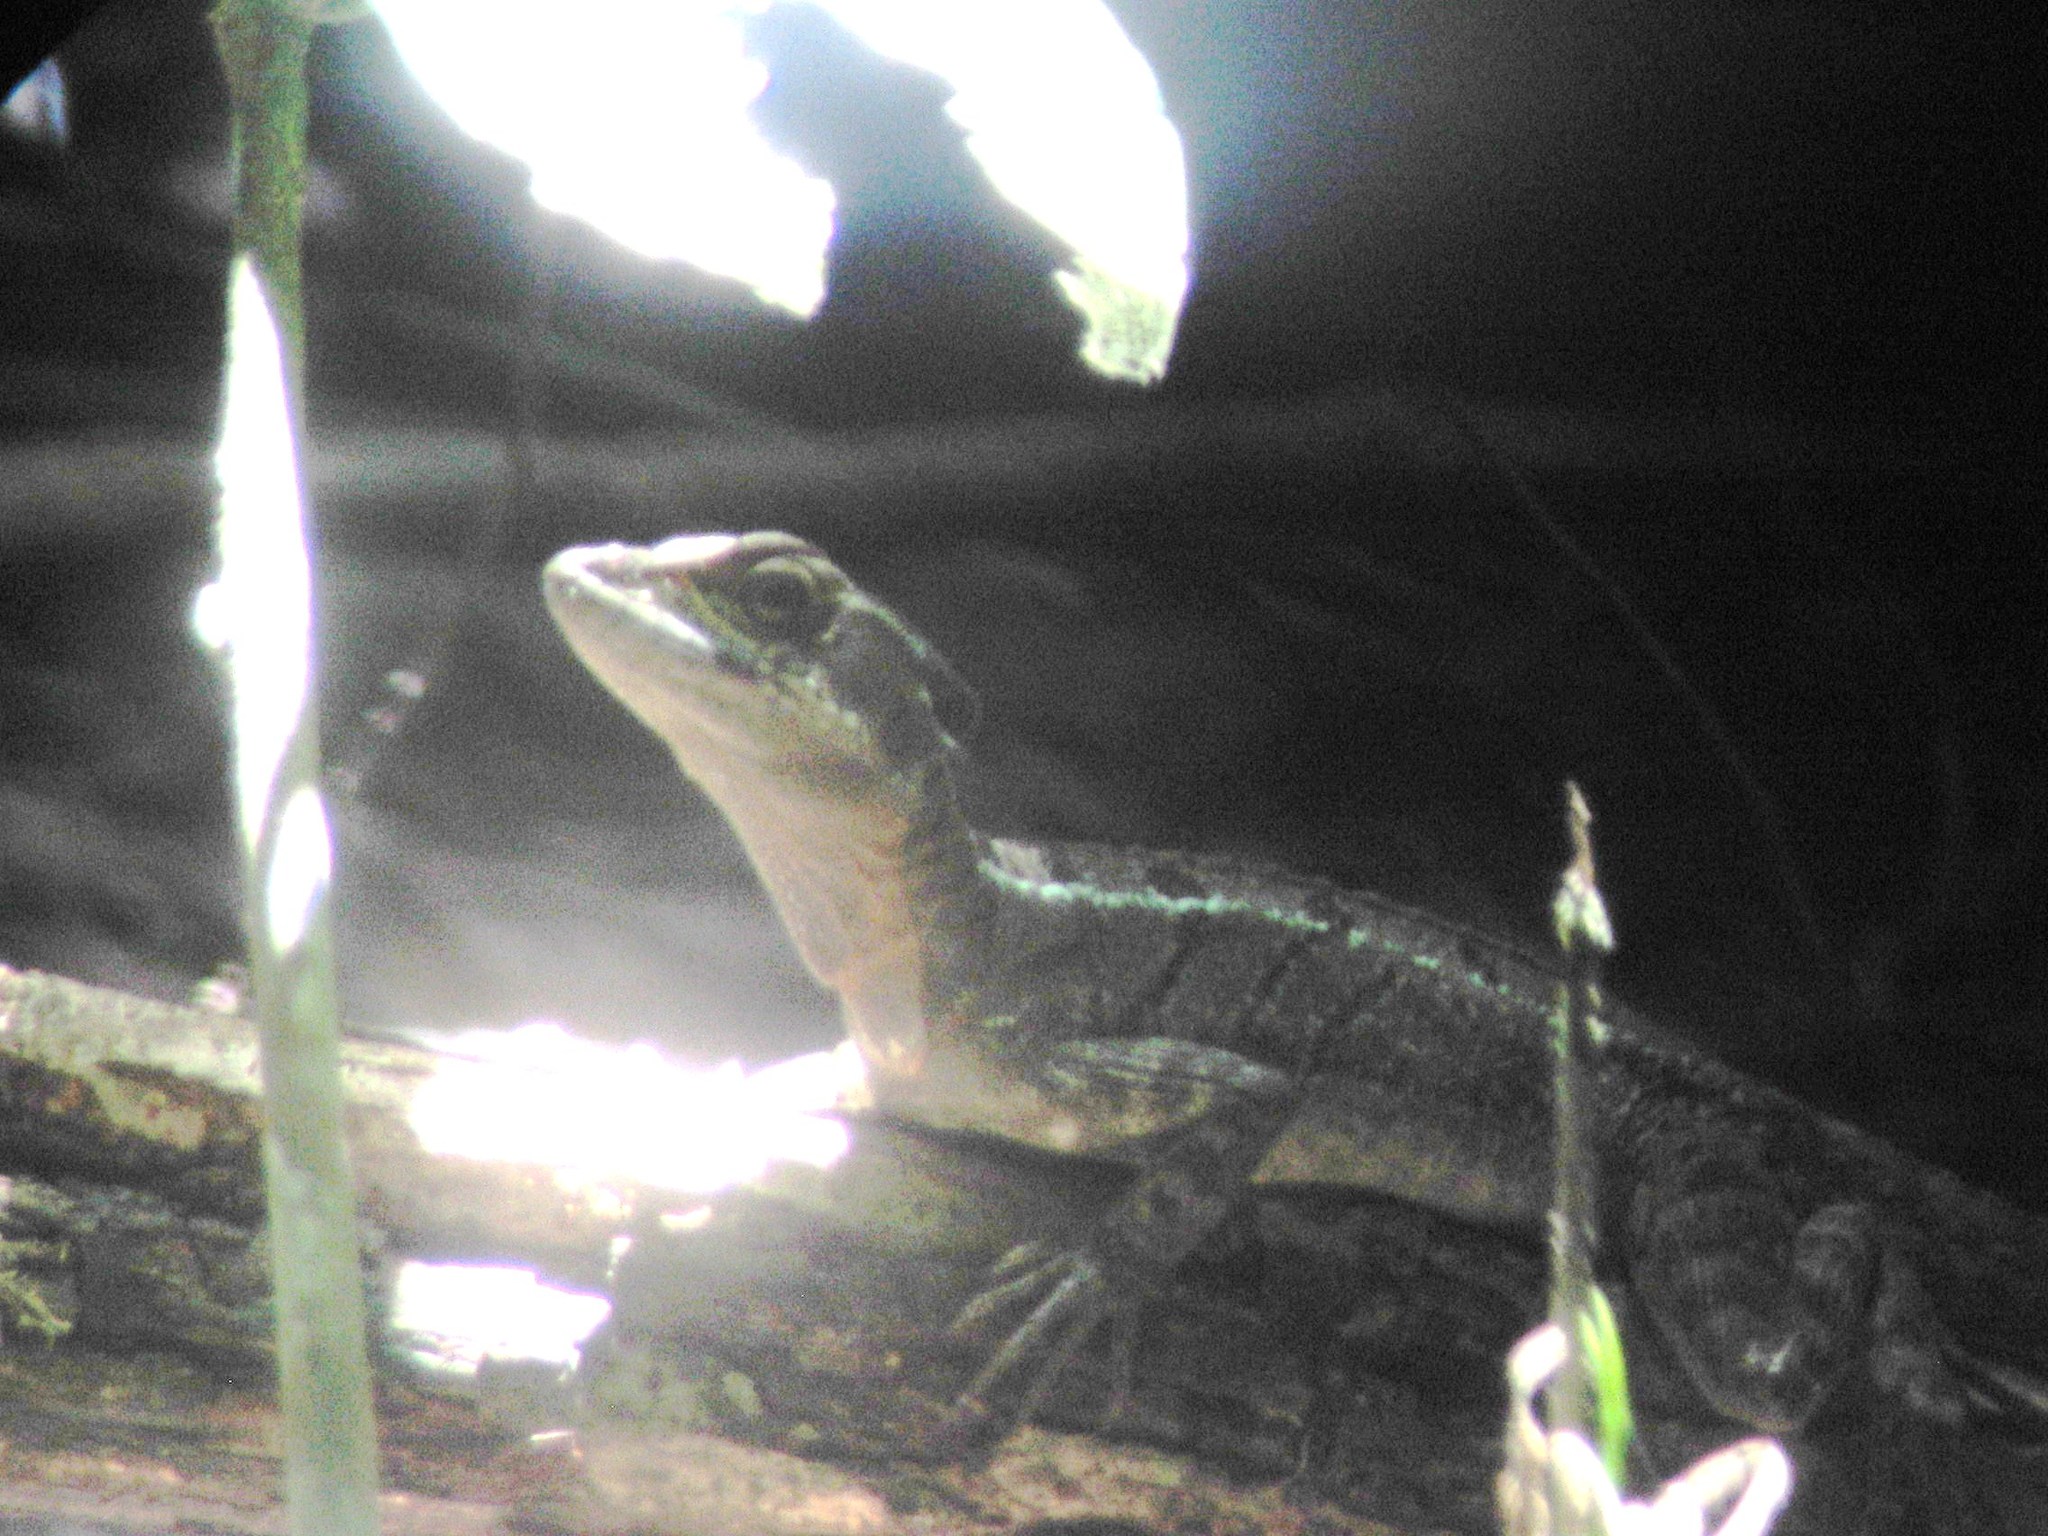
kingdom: Animalia
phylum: Chordata
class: Squamata
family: Corytophanidae
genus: Basiliscus
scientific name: Basiliscus basiliscus
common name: Common basilisk
